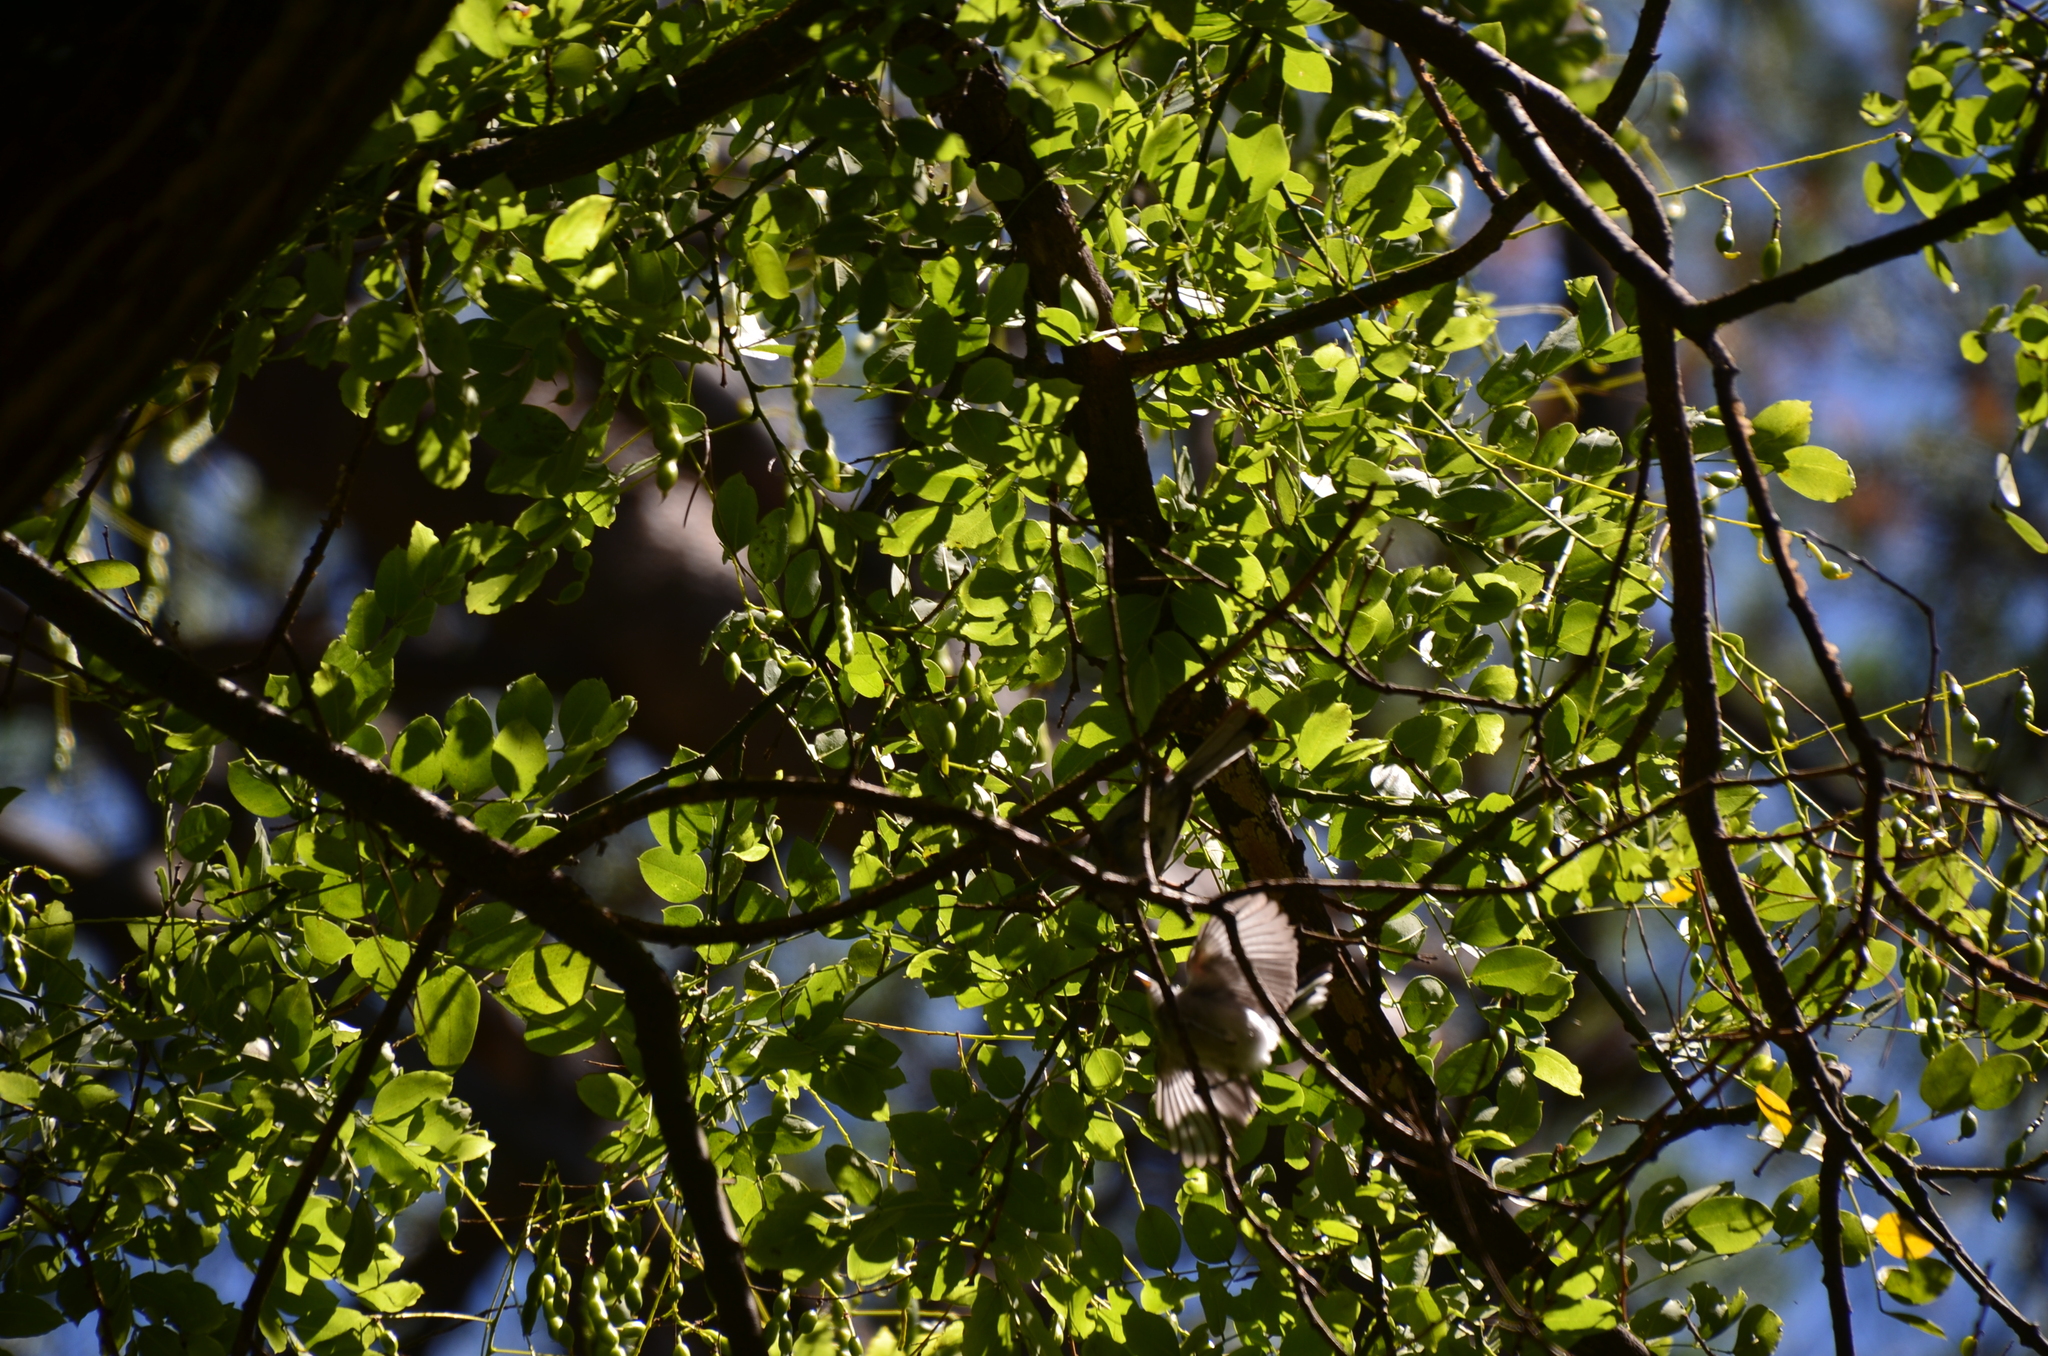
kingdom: Animalia
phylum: Chordata
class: Aves
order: Passeriformes
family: Polioptilidae
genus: Polioptila
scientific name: Polioptila dumicola
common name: Masked gnatcatcher
